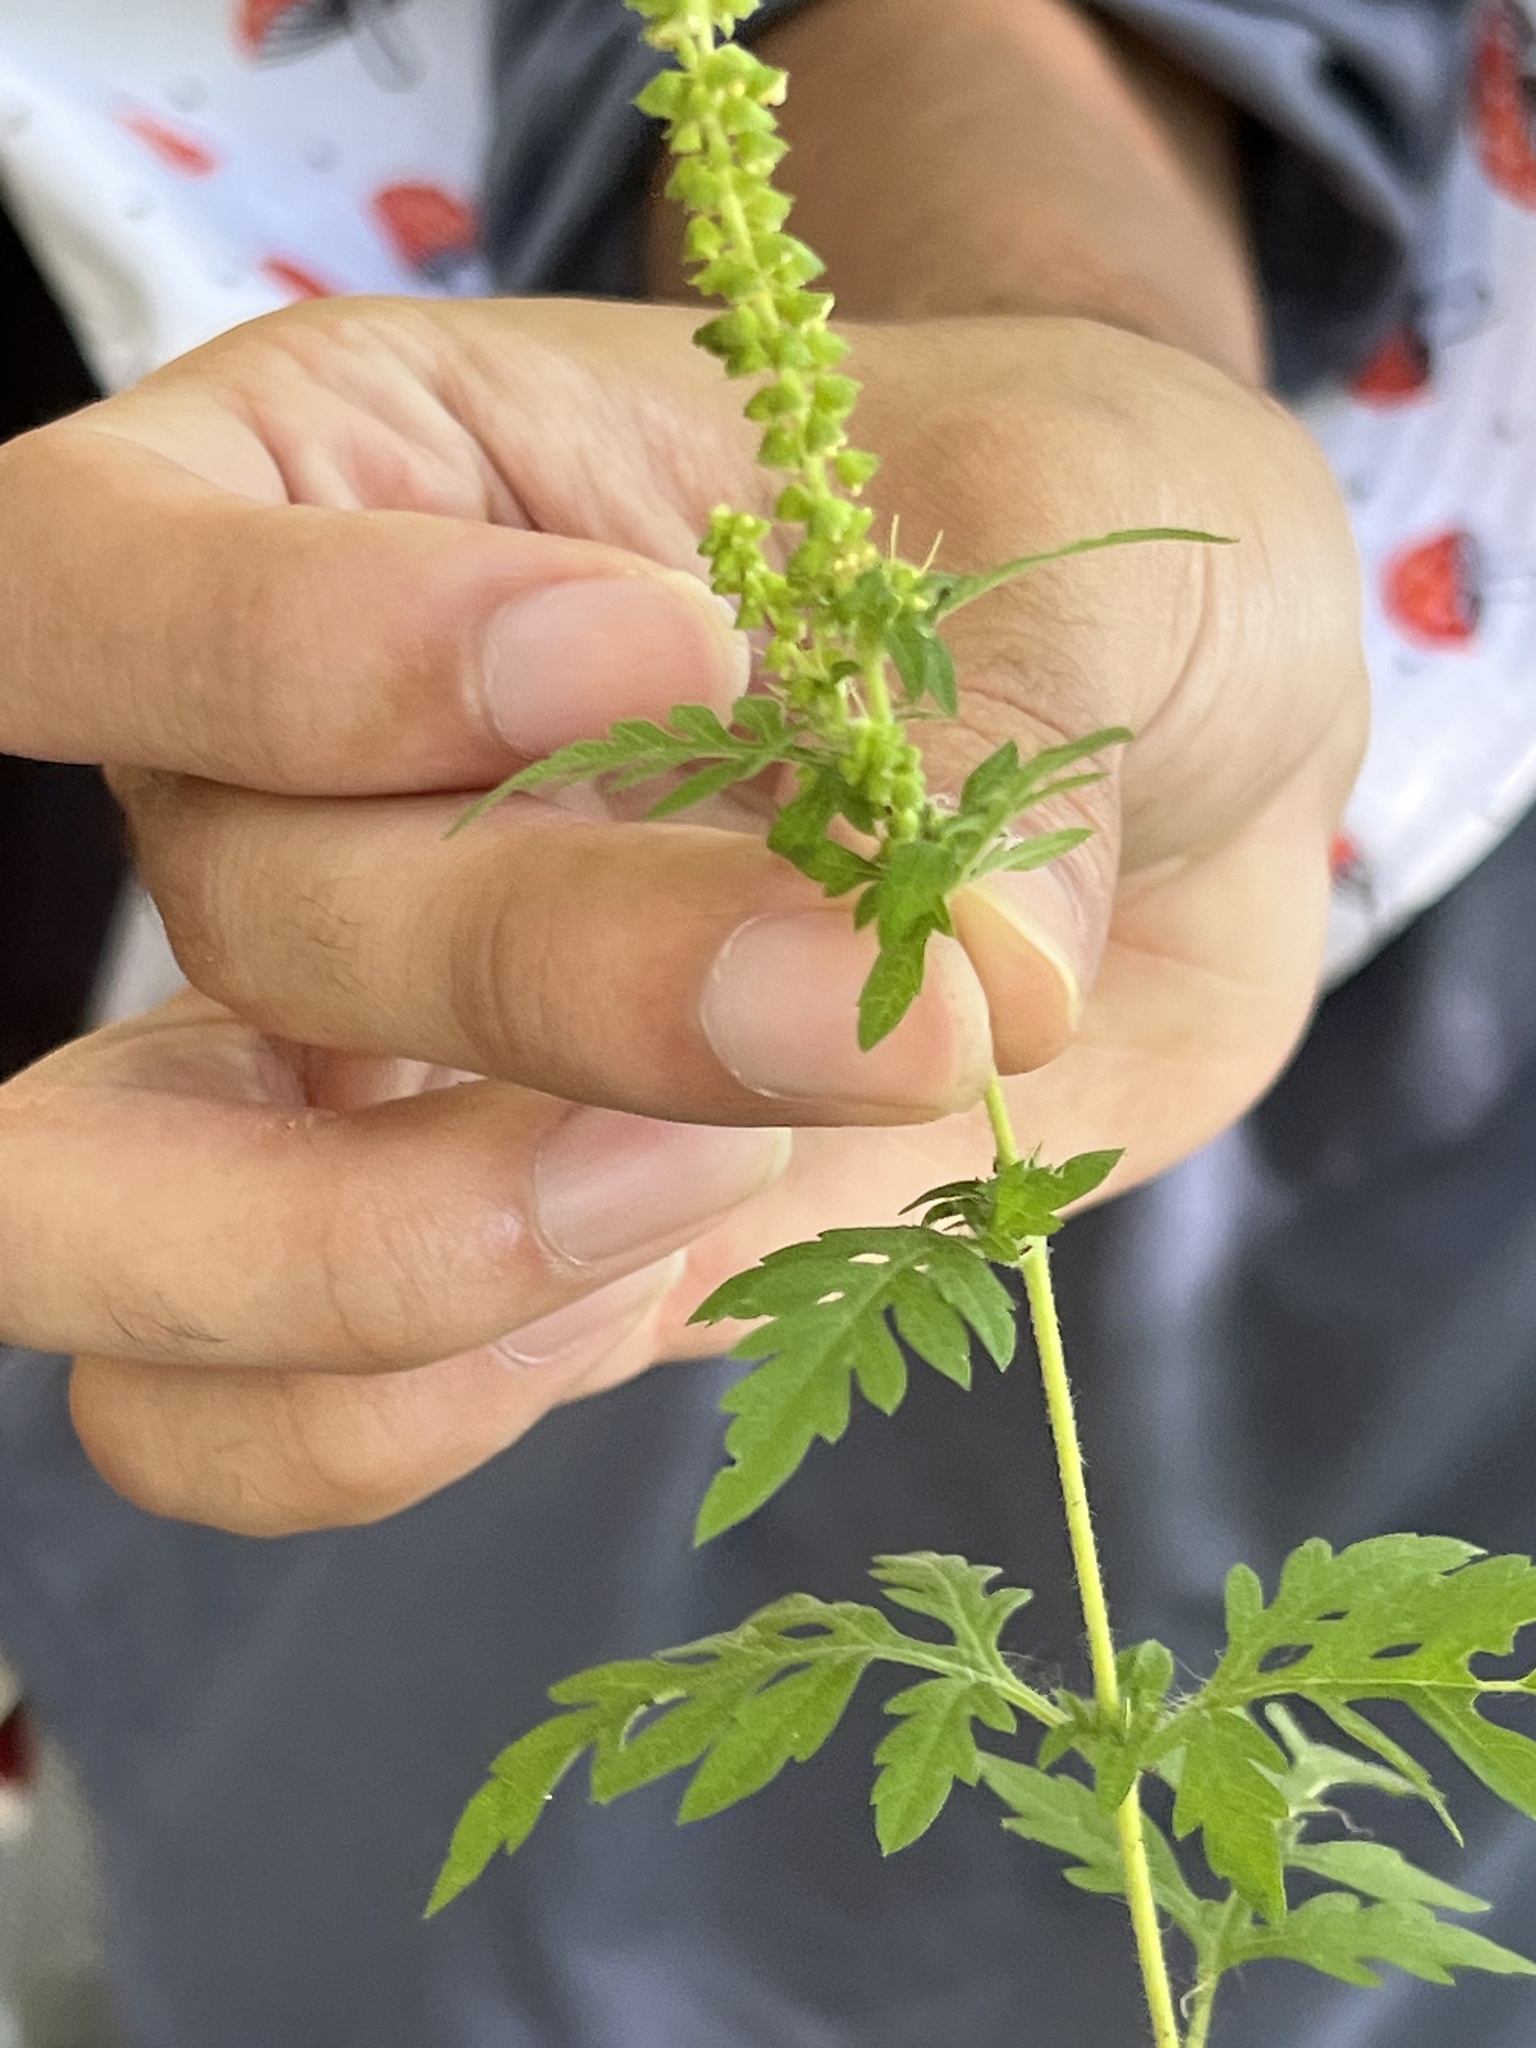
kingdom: Plantae
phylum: Tracheophyta
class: Magnoliopsida
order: Asterales
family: Asteraceae
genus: Ambrosia
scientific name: Ambrosia artemisiifolia
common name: Annual ragweed
